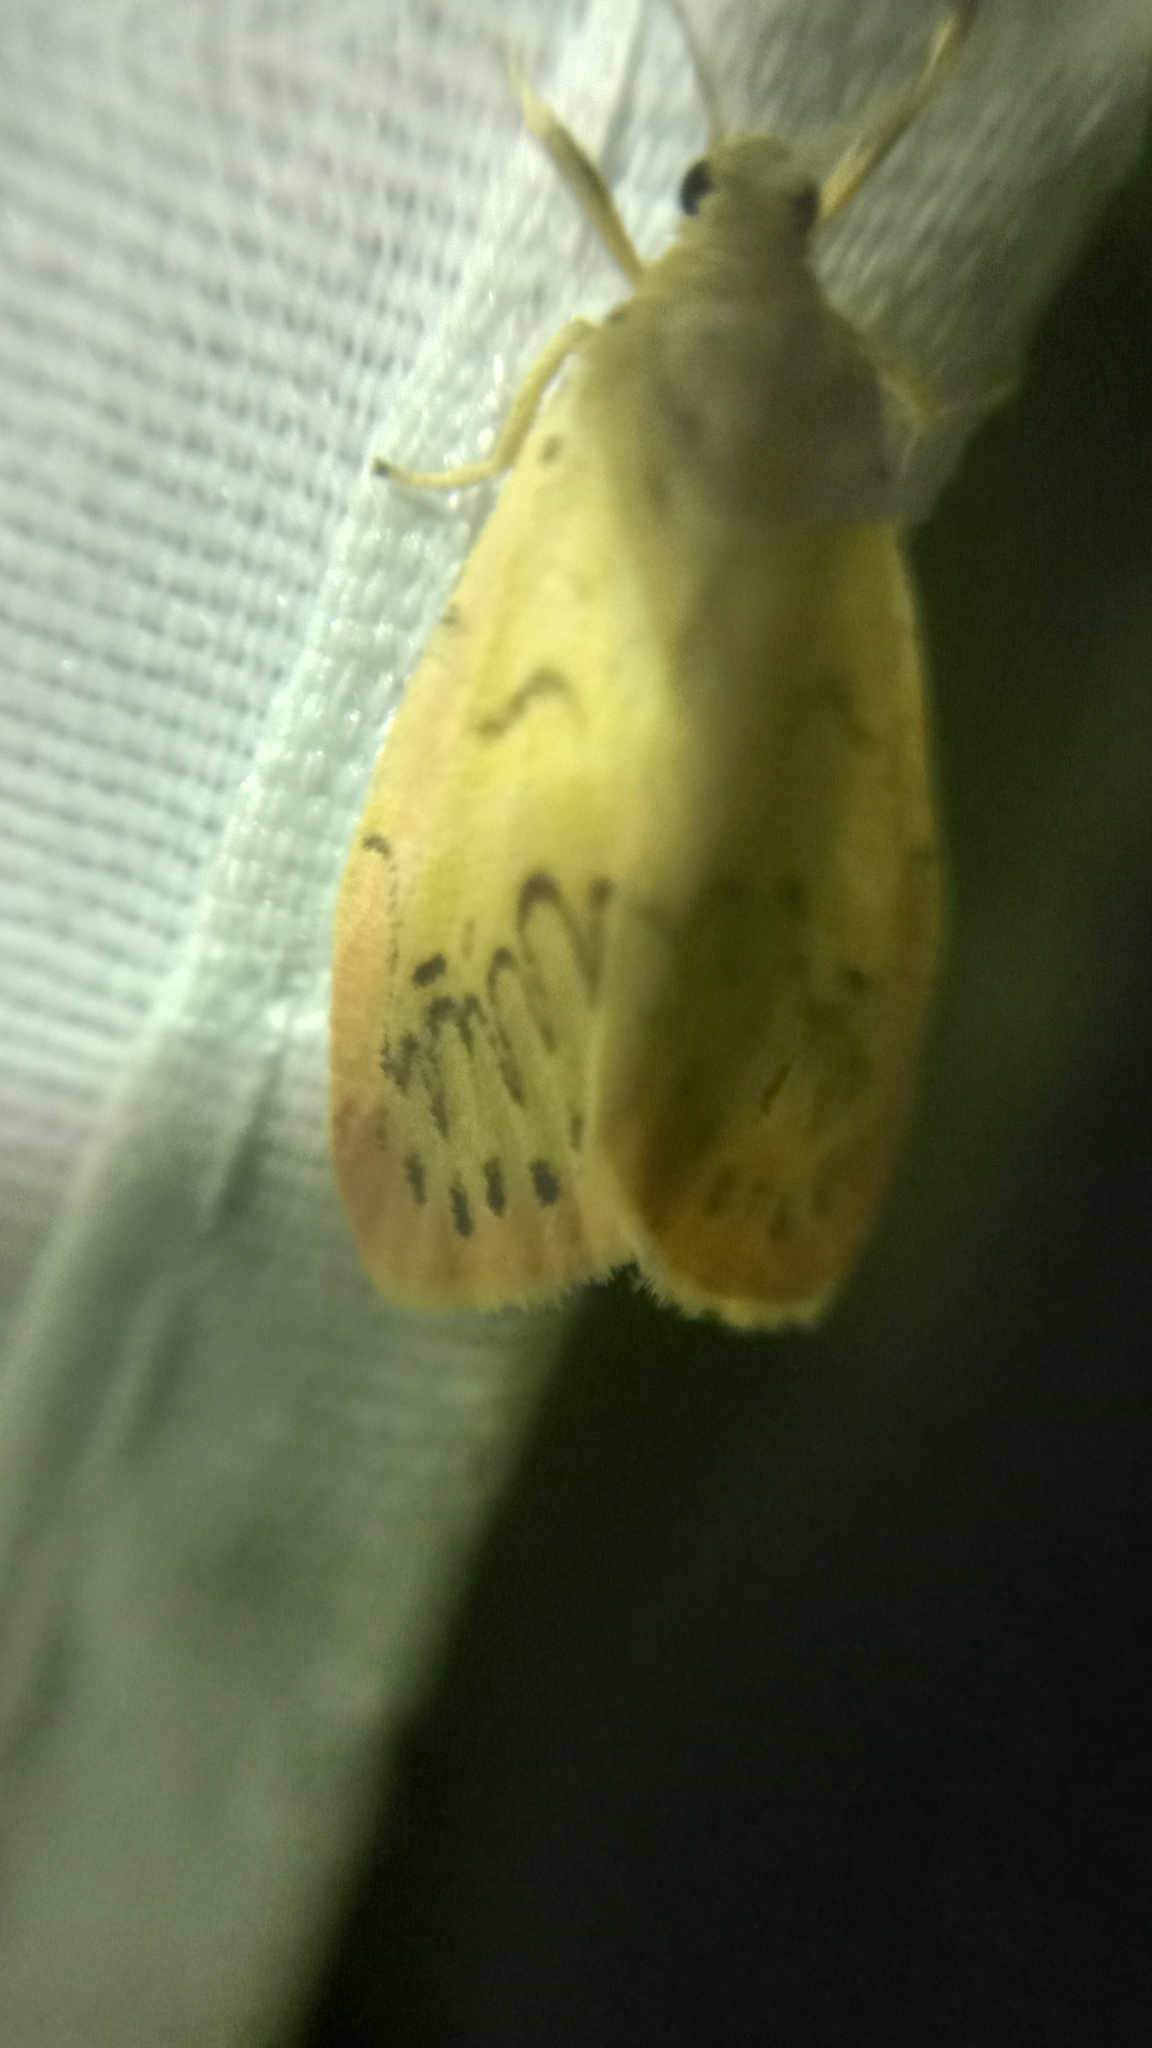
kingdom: Animalia
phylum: Arthropoda
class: Insecta
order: Lepidoptera
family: Erebidae
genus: Miltochrista
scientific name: Miltochrista miniata
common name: Rosy footman
